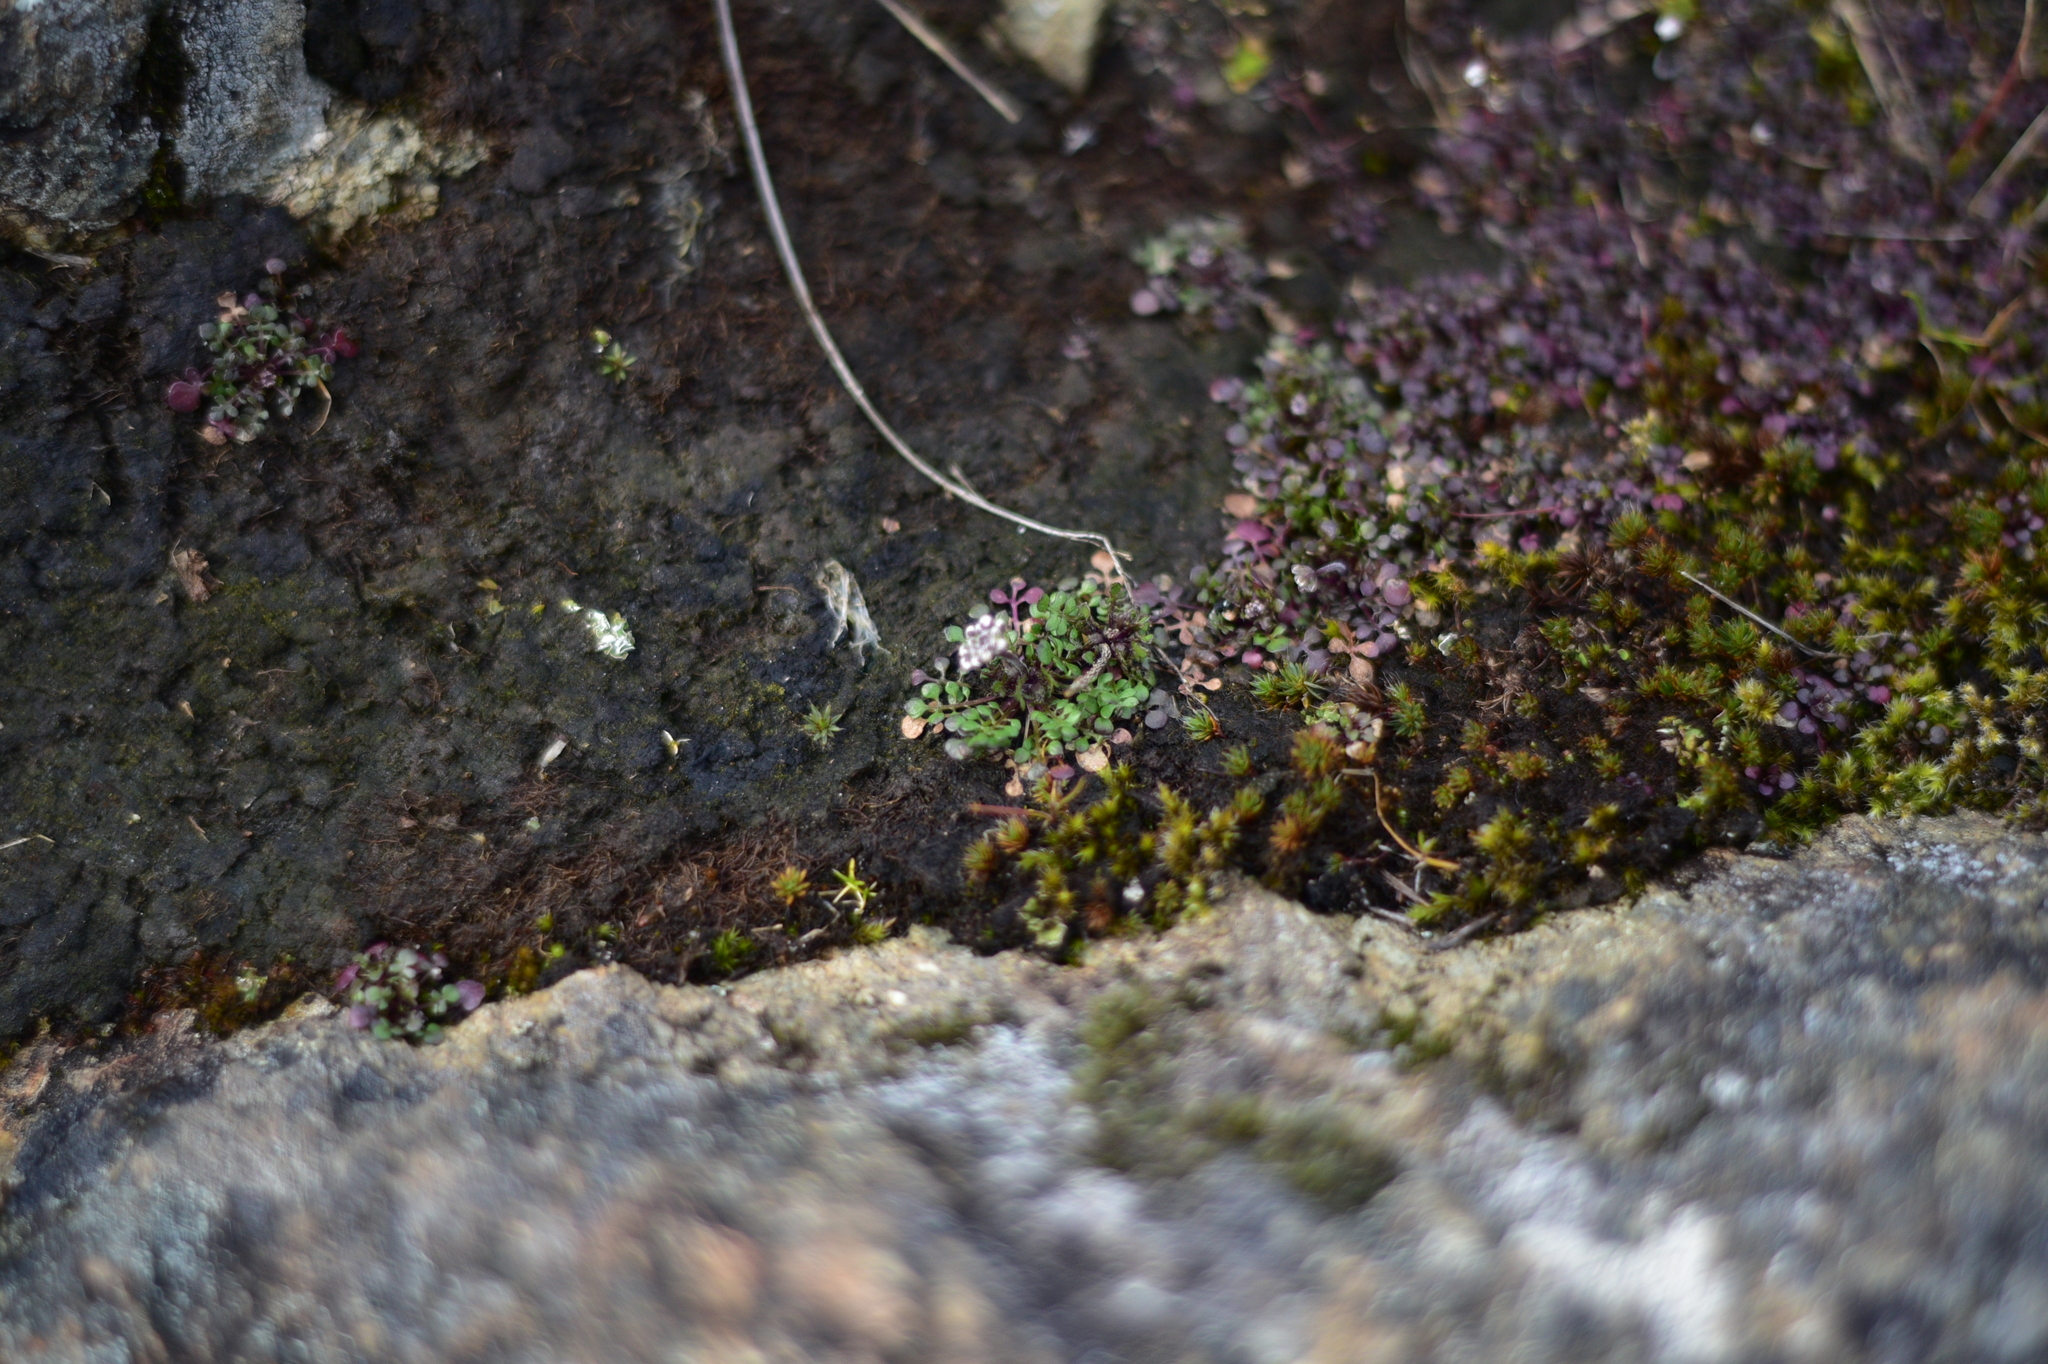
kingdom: Plantae
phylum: Tracheophyta
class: Magnoliopsida
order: Brassicales
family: Brassicaceae
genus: Teesdalia
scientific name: Teesdalia nudicaulis
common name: Shepherd's cress
